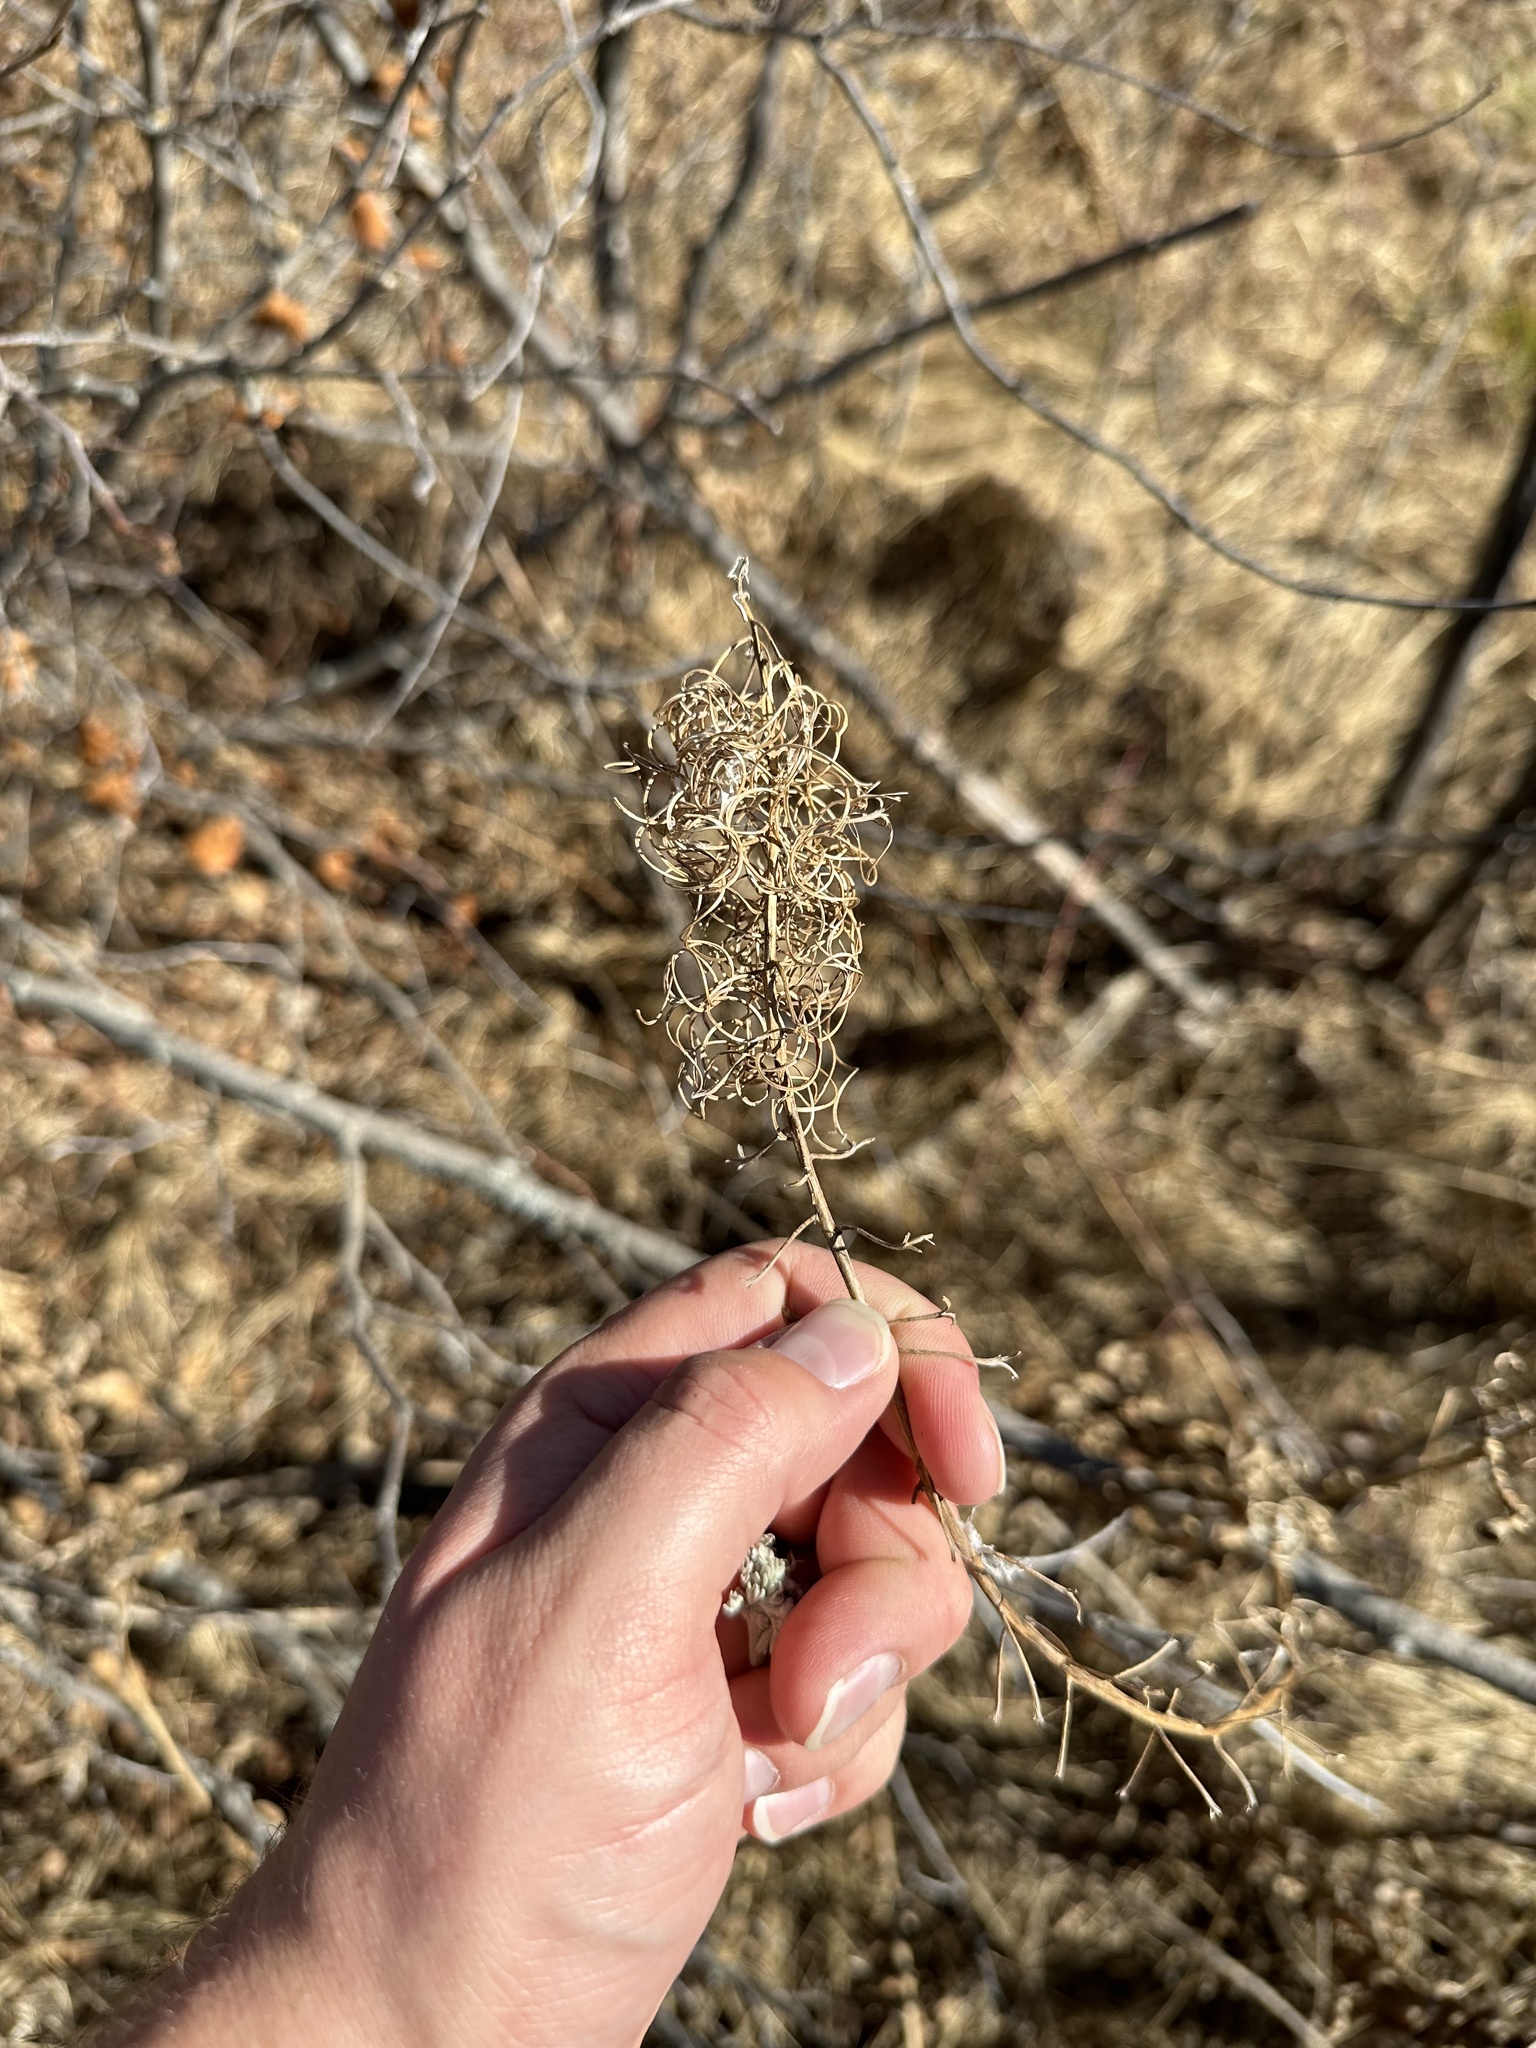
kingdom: Plantae
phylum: Tracheophyta
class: Magnoliopsida
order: Myrtales
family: Onagraceae
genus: Chamaenerion
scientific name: Chamaenerion angustifolium
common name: Fireweed
